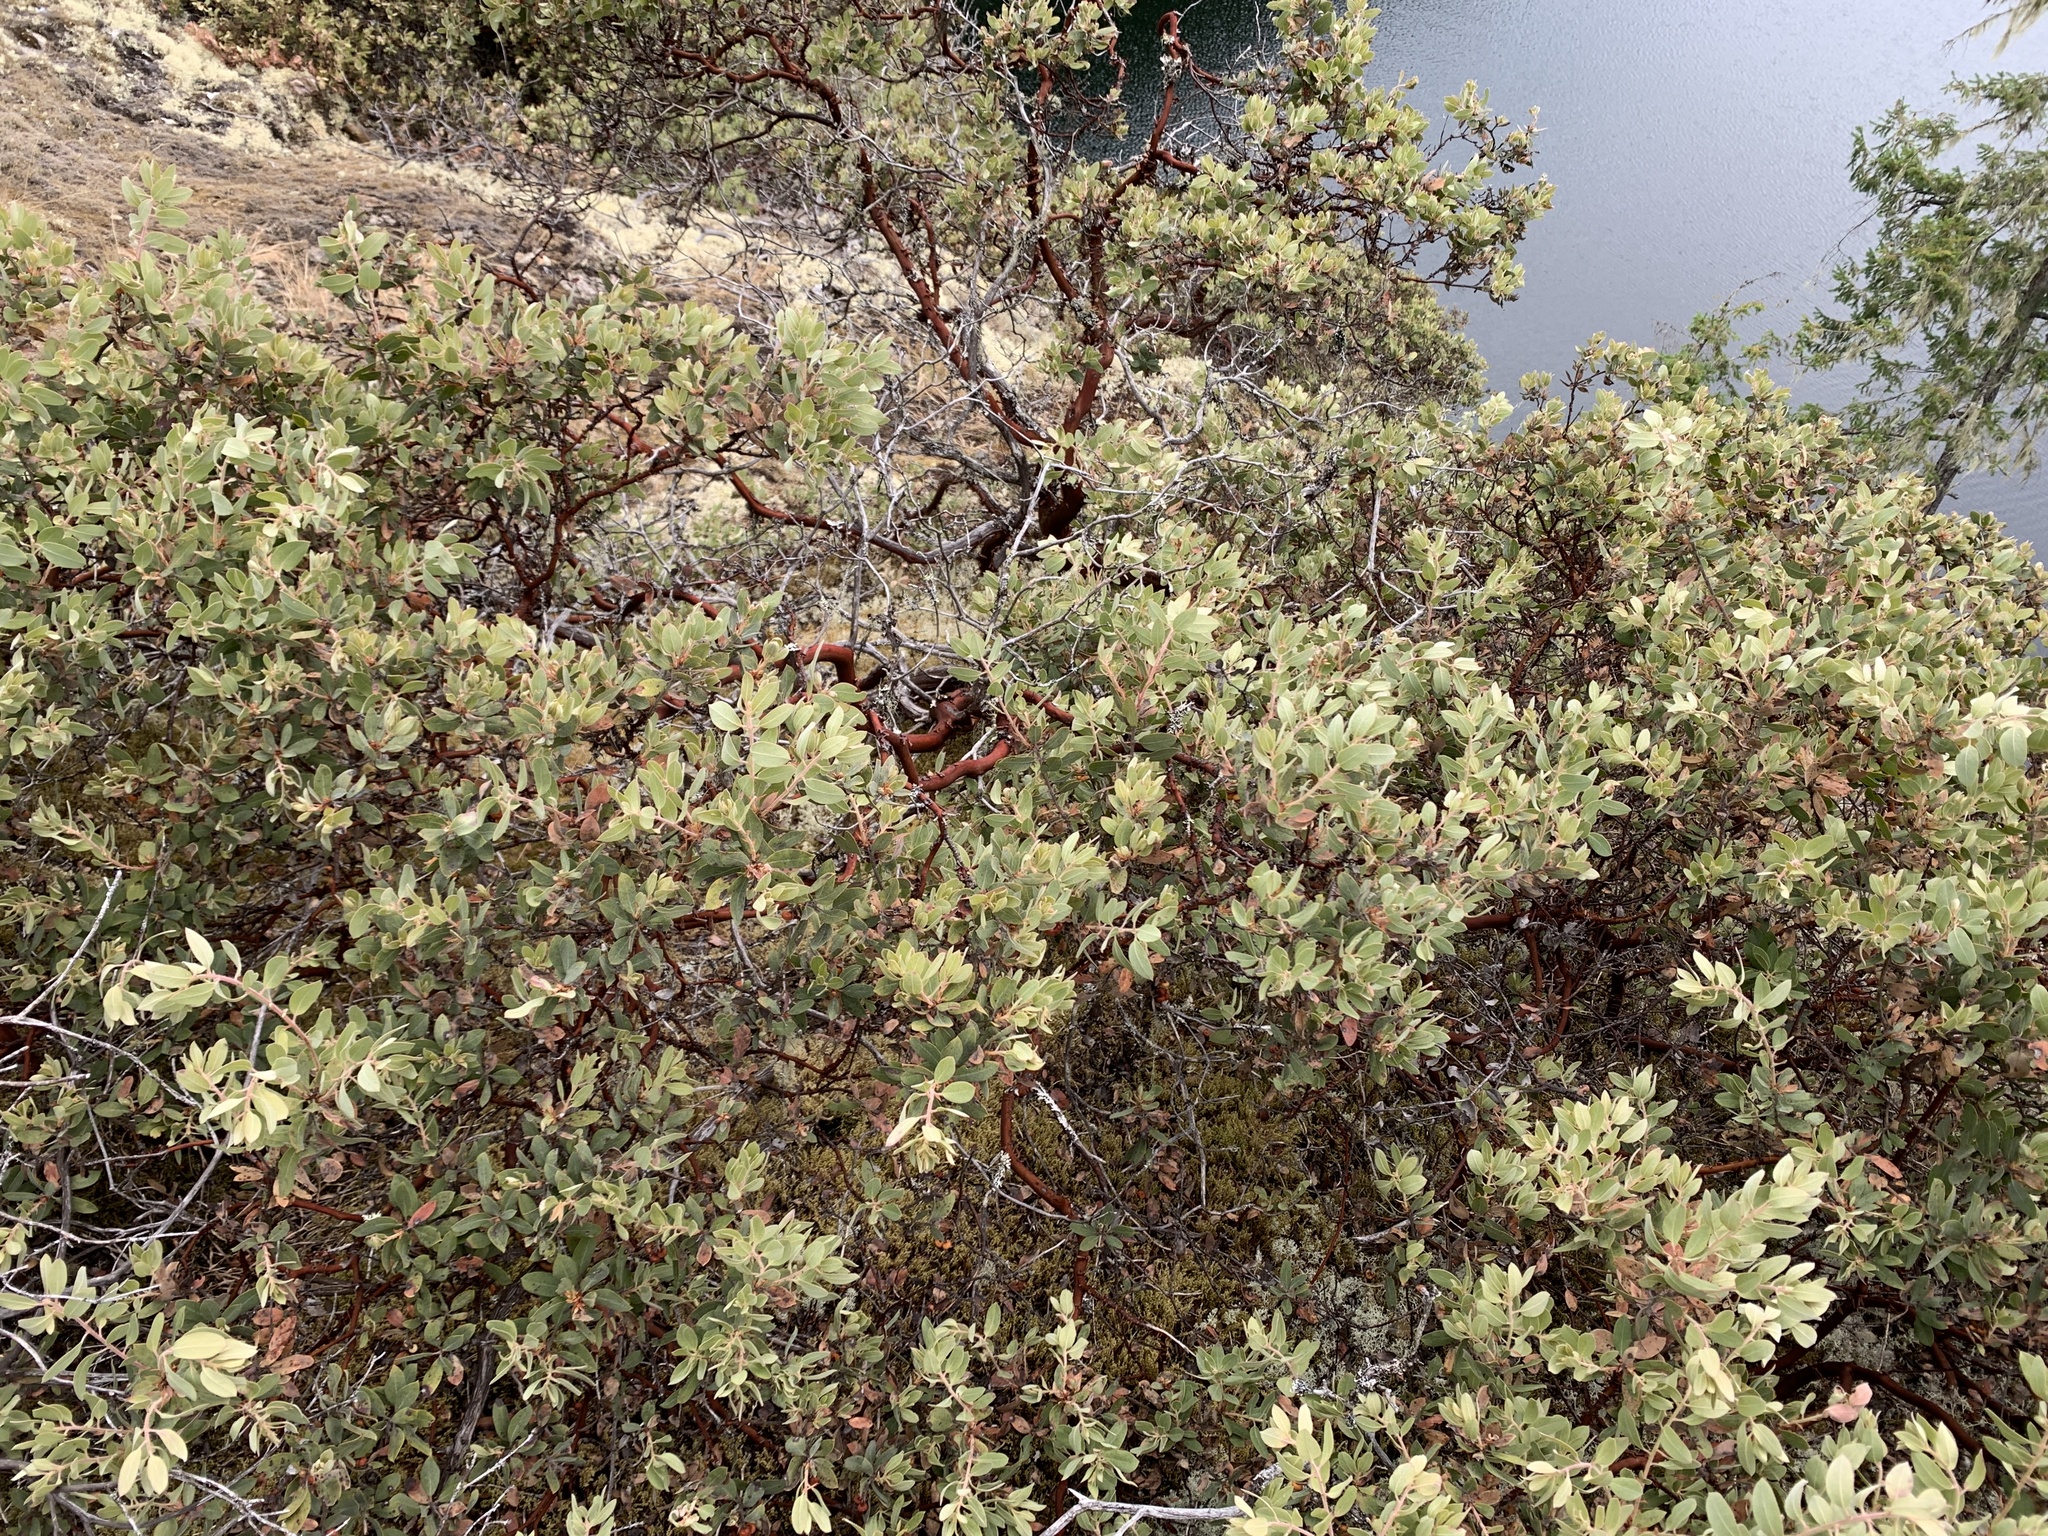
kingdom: Plantae
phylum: Tracheophyta
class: Magnoliopsida
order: Ericales
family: Ericaceae
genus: Arctostaphylos
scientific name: Arctostaphylos columbiana
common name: Bristly bearberry
